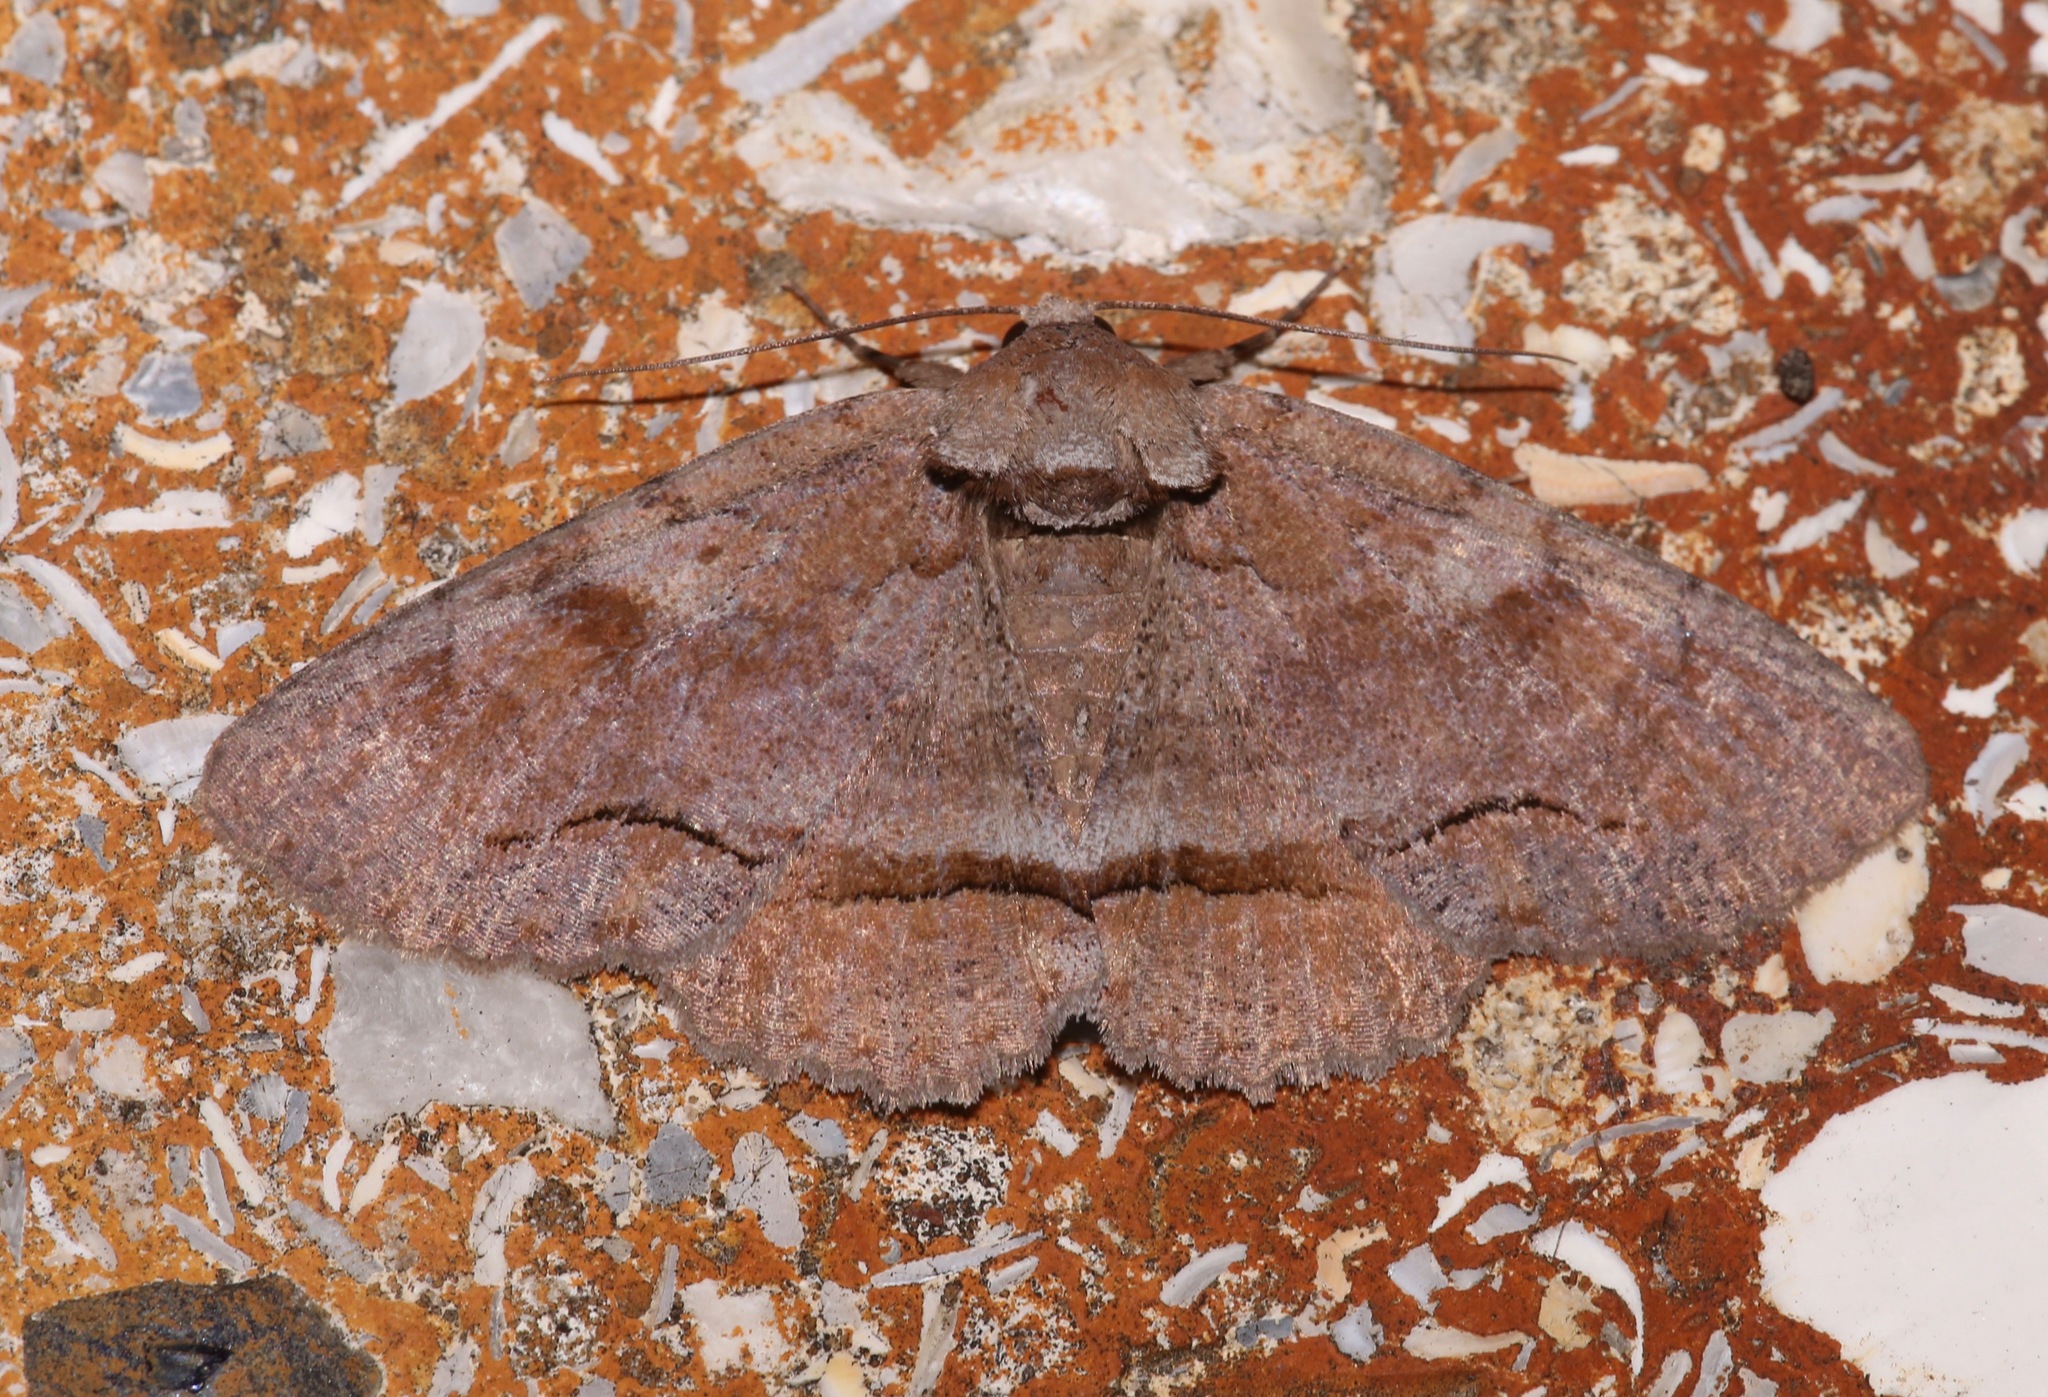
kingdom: Animalia
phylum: Arthropoda
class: Insecta
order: Lepidoptera
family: Erebidae
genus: Zale
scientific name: Zale obliqua
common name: Oblique zale moth
